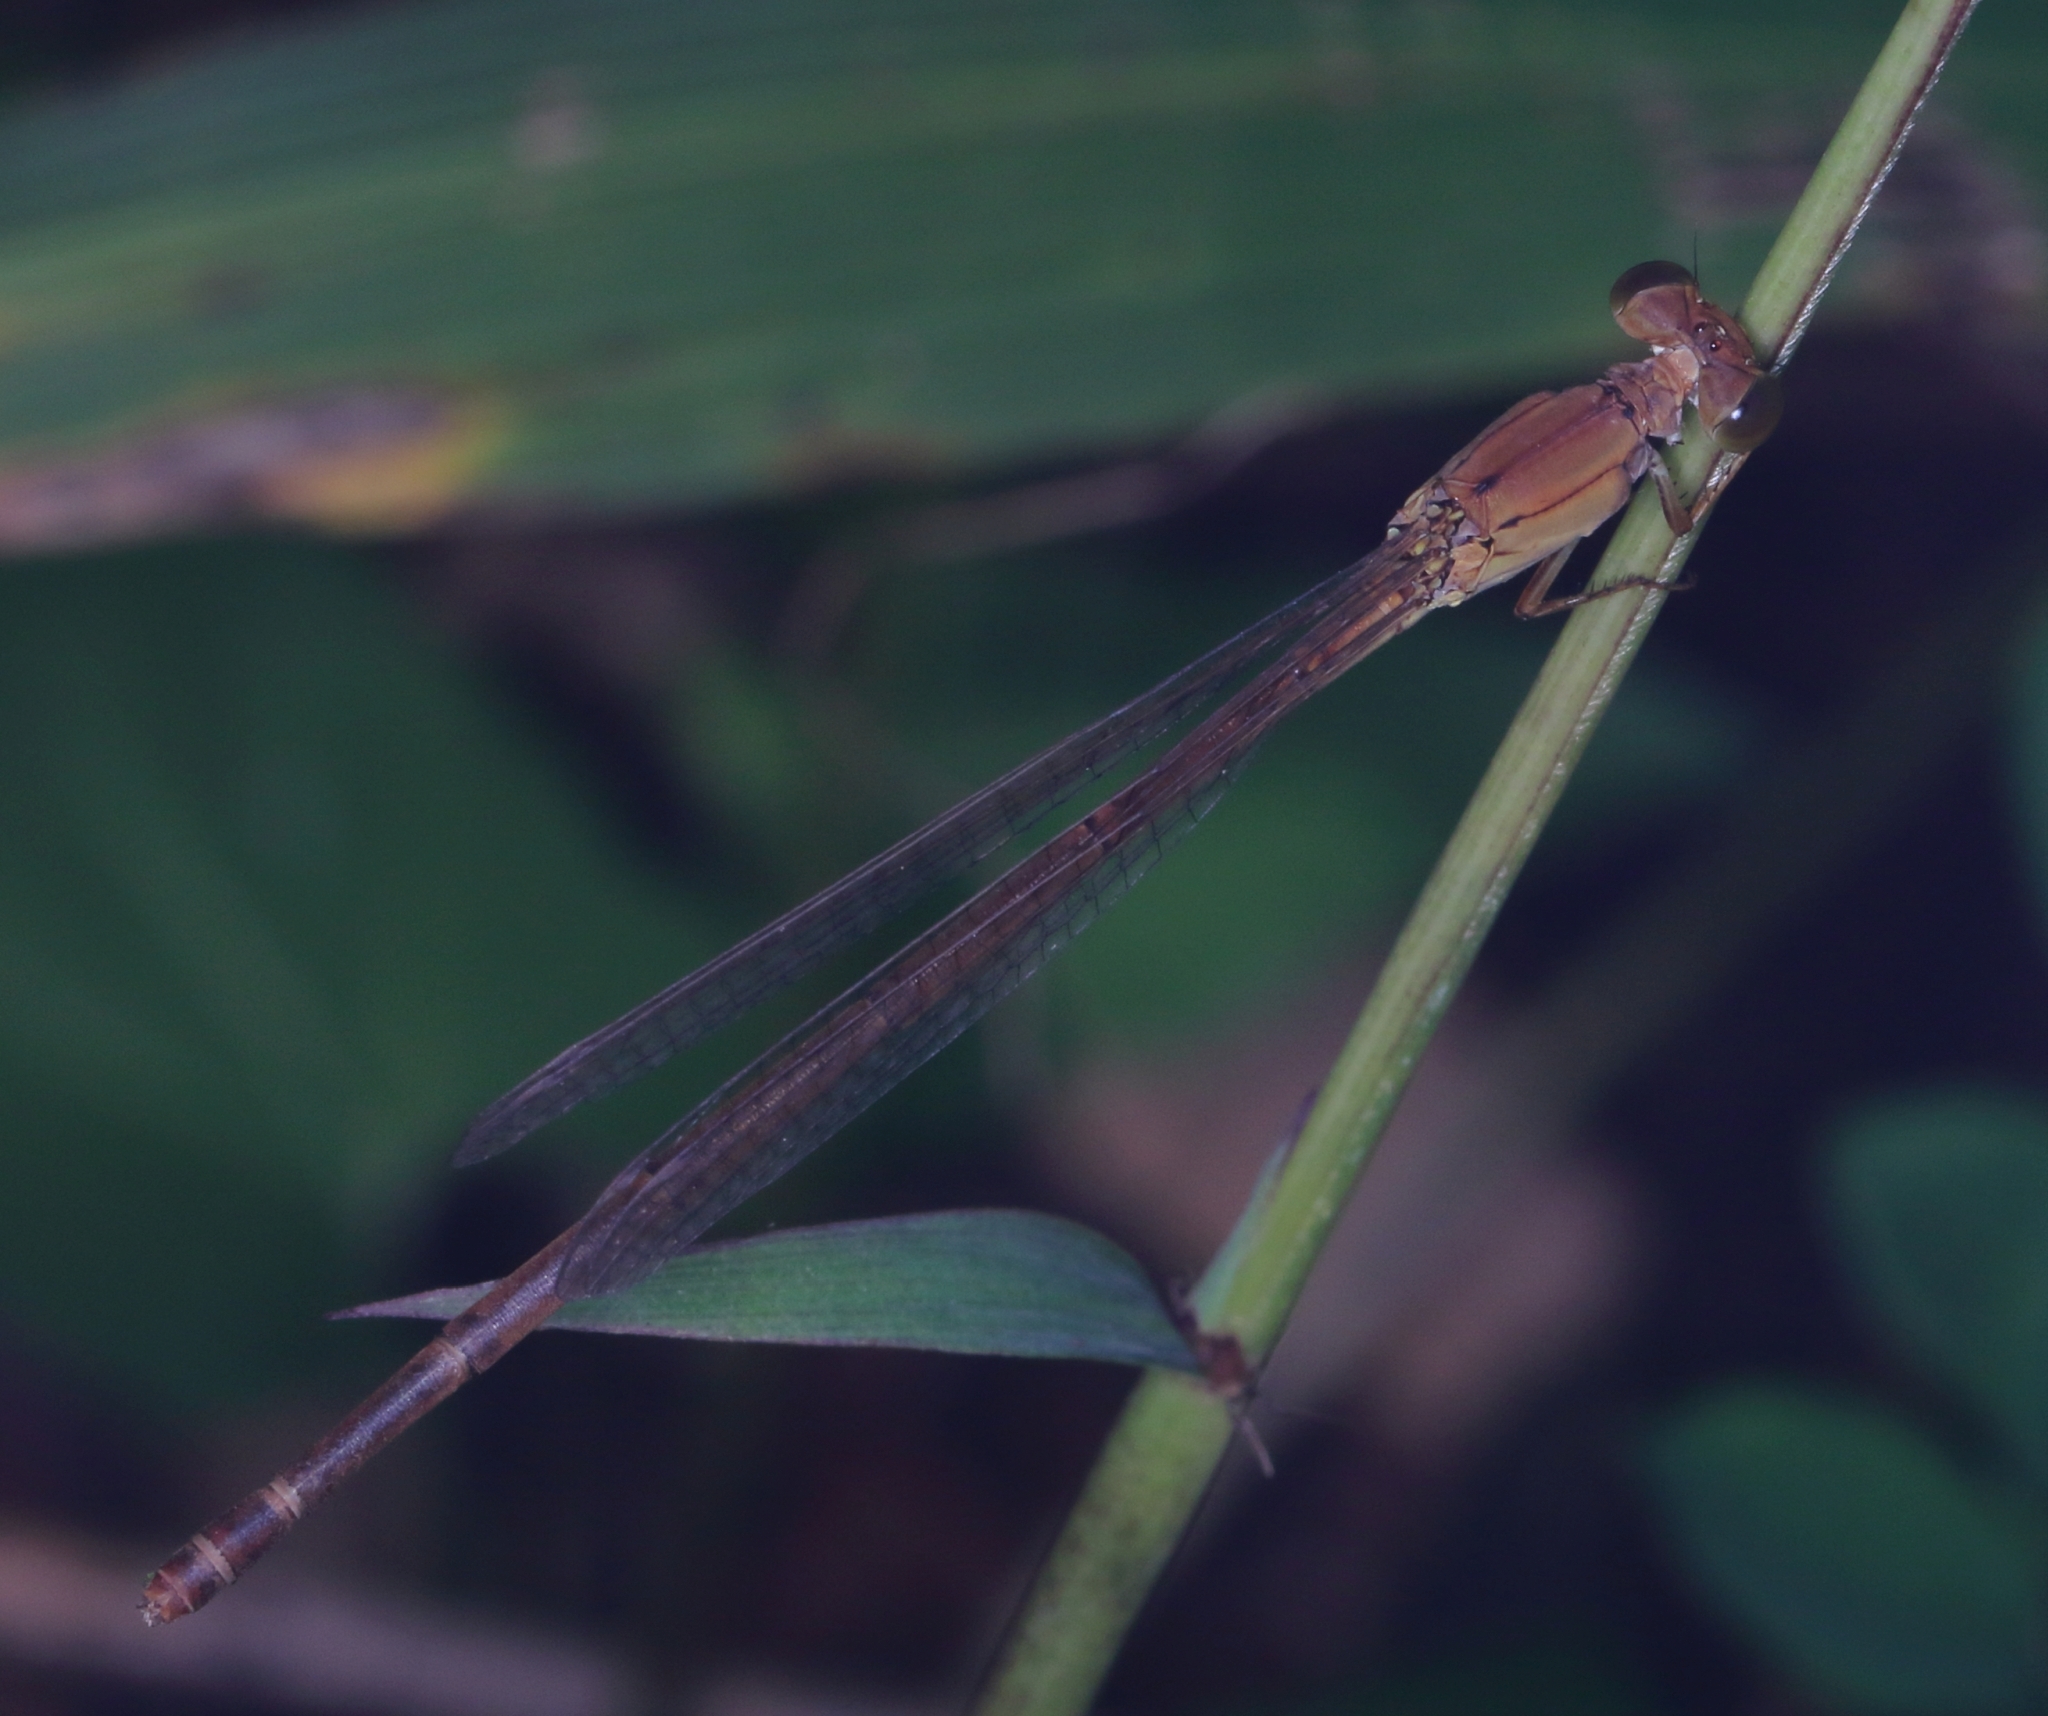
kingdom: Animalia
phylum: Arthropoda
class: Insecta
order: Odonata
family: Coenagrionidae
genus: Ceriagrion
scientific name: Ceriagrion glabrum
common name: Common pond damsel
